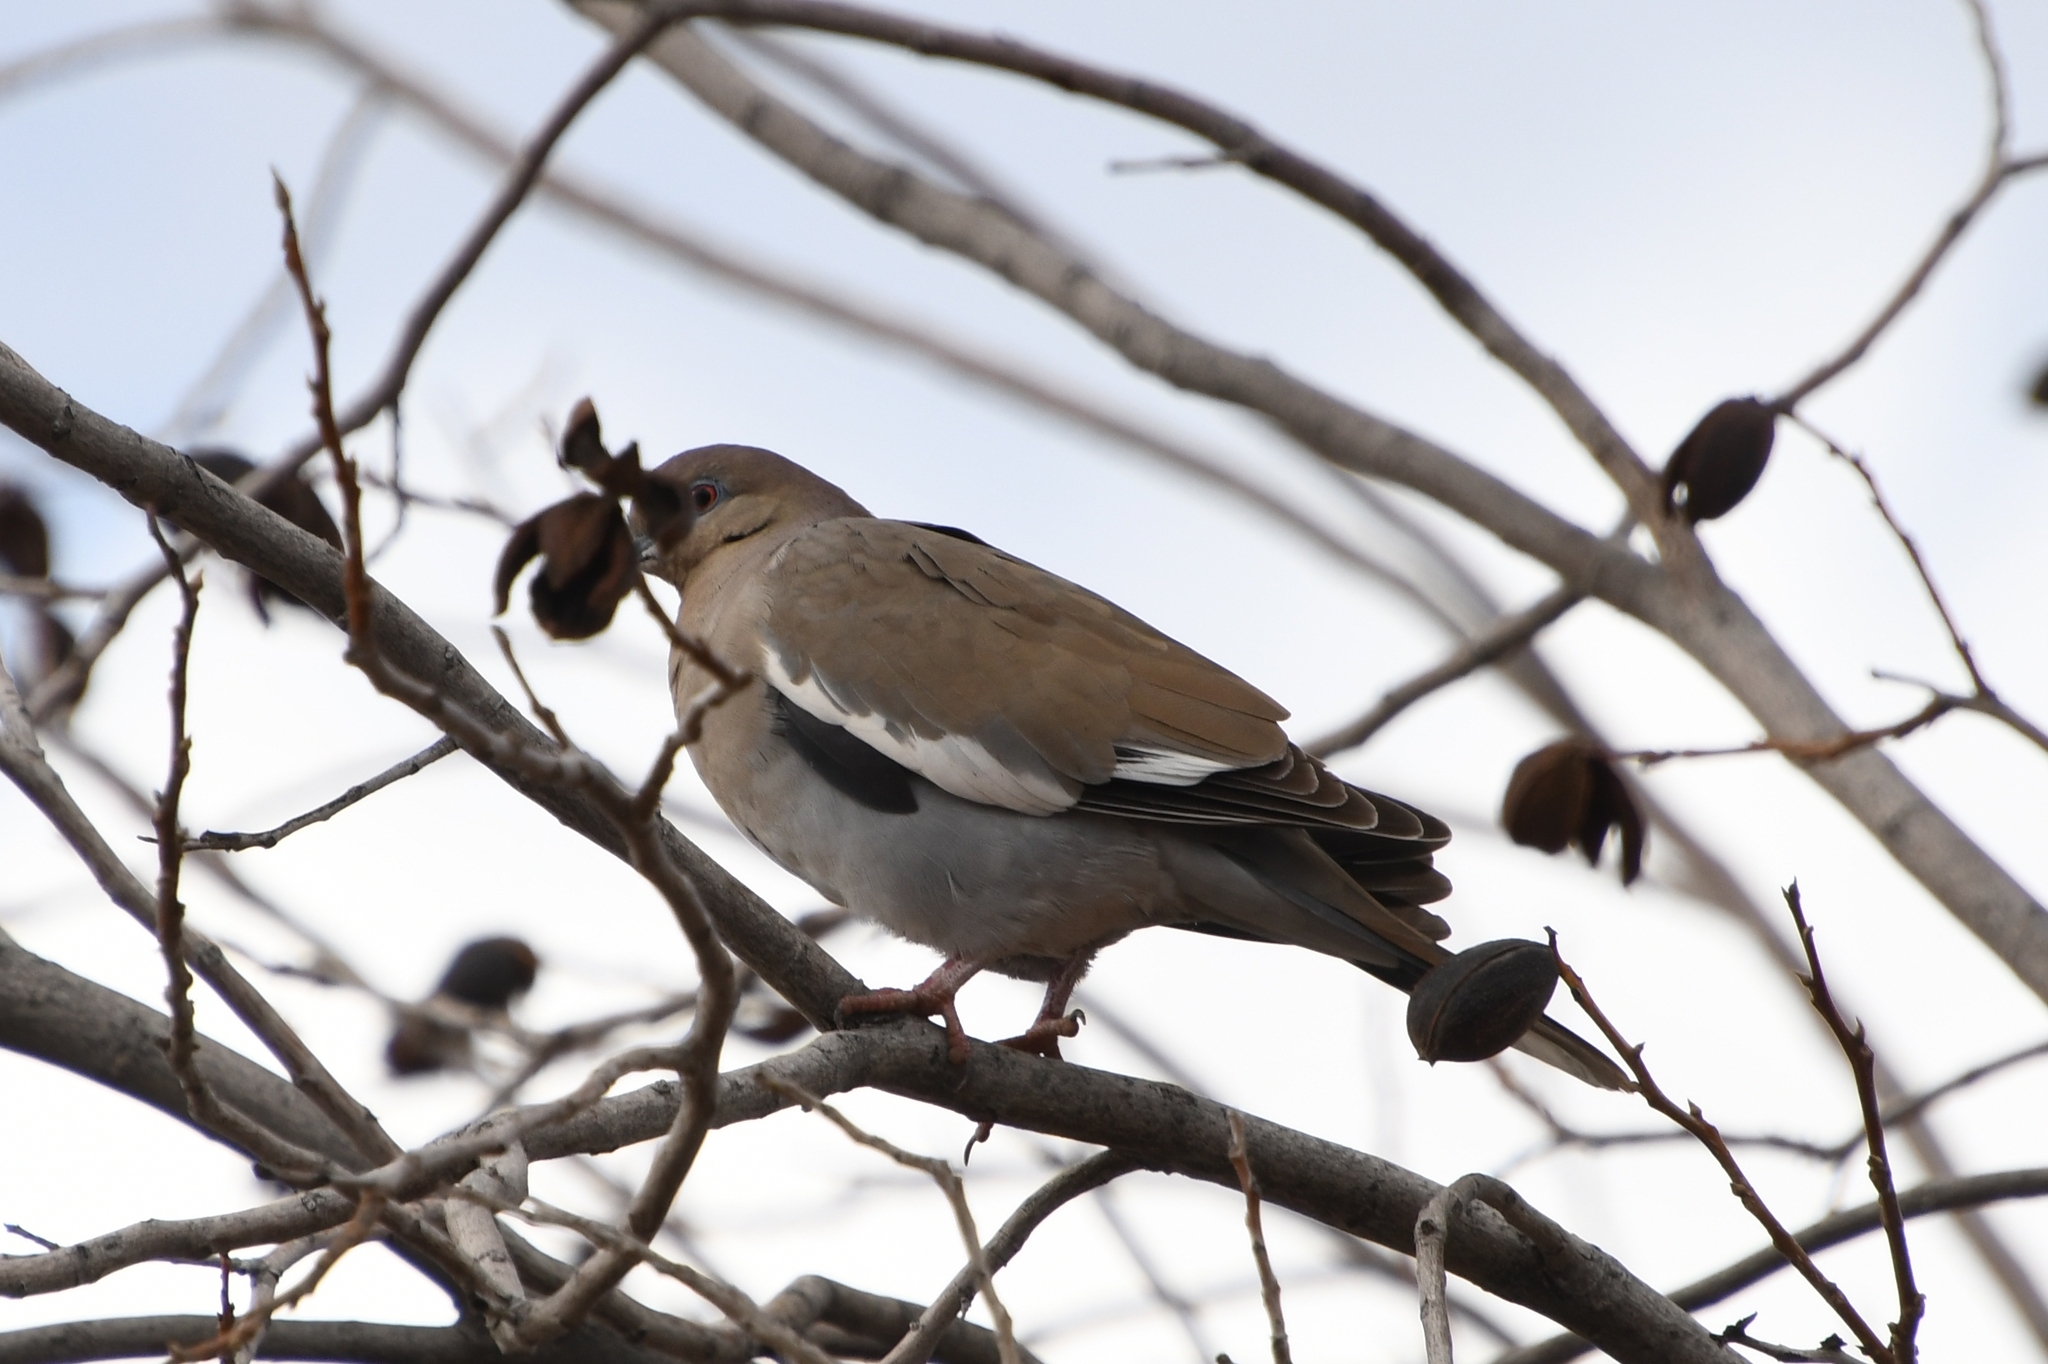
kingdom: Animalia
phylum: Chordata
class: Aves
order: Columbiformes
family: Columbidae
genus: Zenaida
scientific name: Zenaida asiatica
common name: White-winged dove
